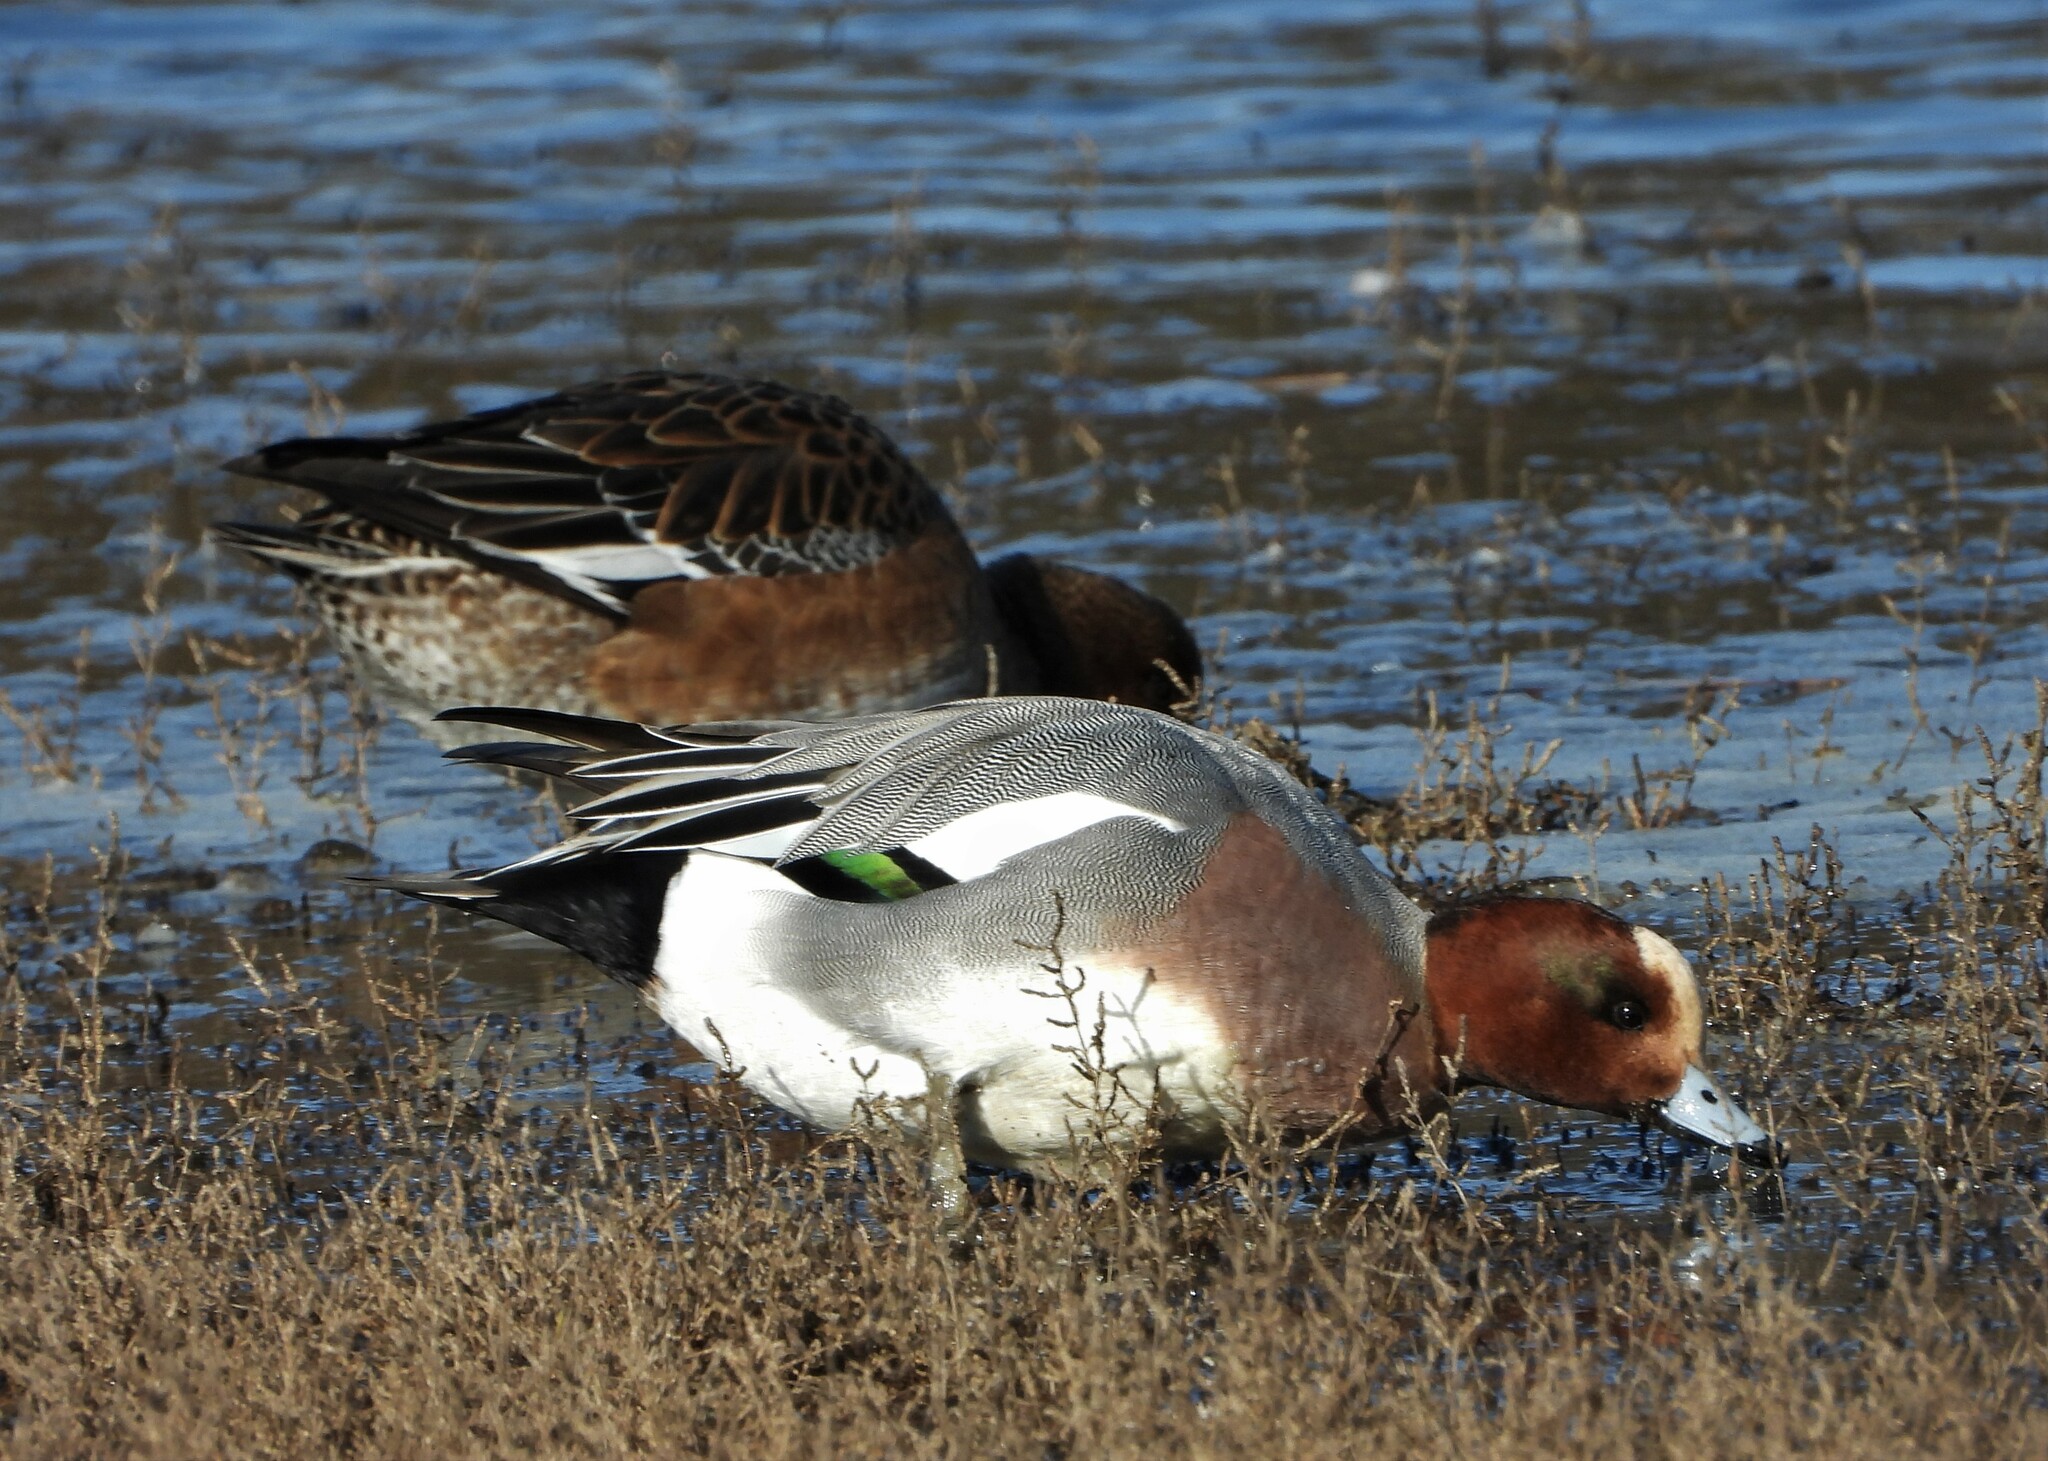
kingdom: Animalia
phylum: Chordata
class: Aves
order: Anseriformes
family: Anatidae
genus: Mareca
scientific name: Mareca penelope
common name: Eurasian wigeon
